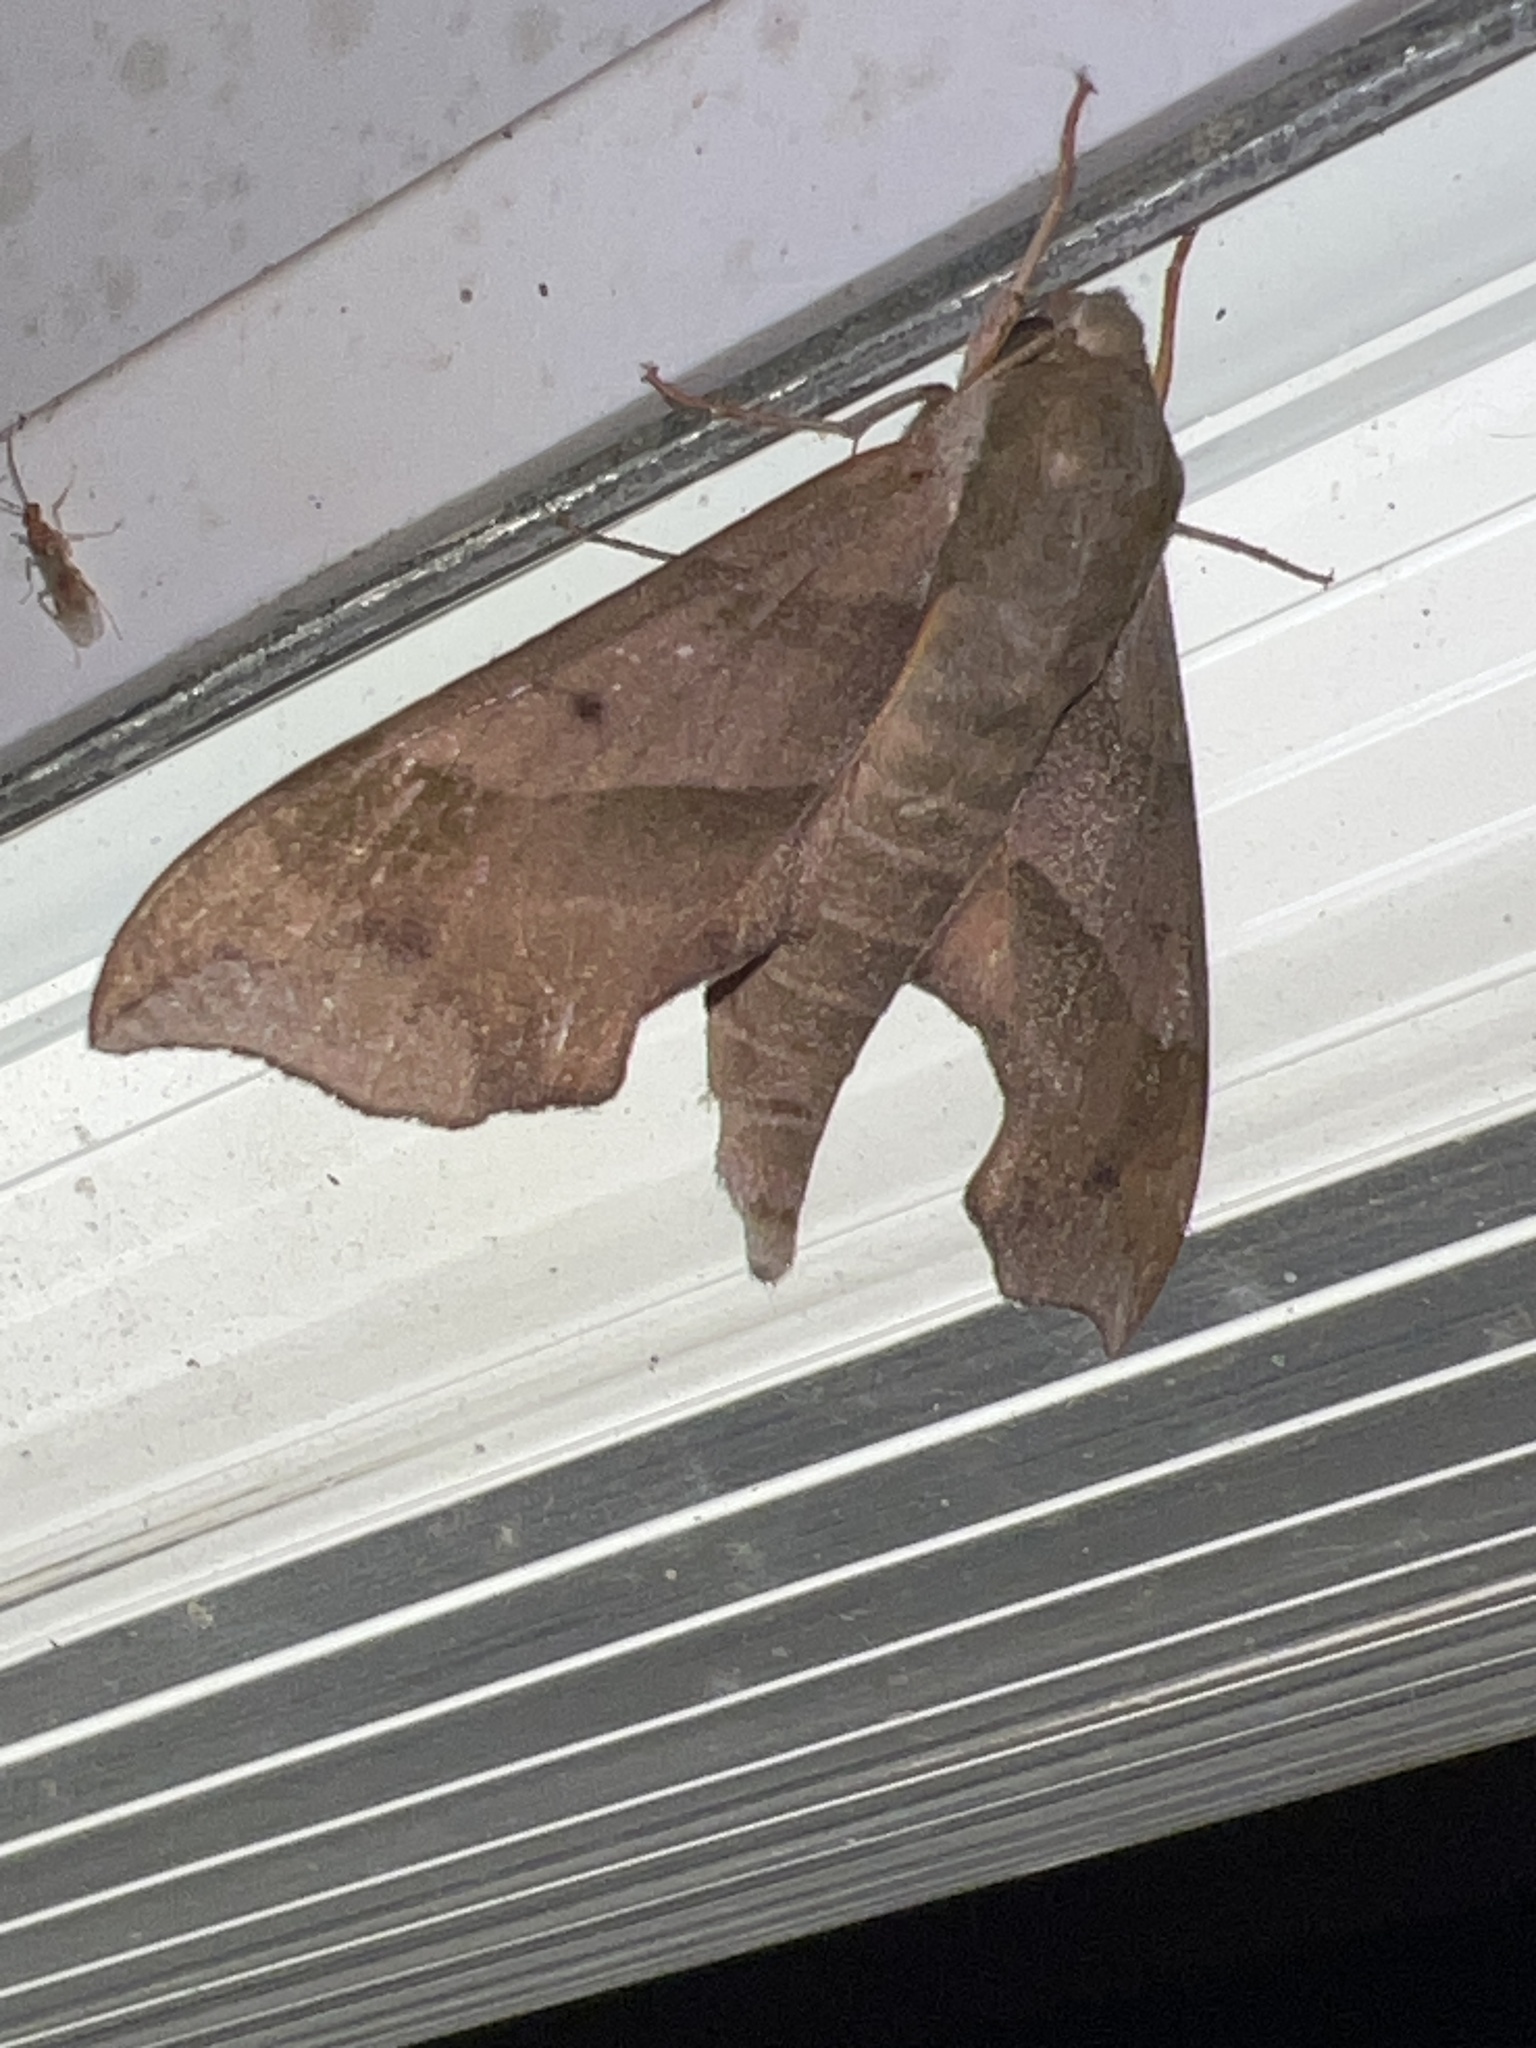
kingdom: Animalia
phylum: Arthropoda
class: Insecta
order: Lepidoptera
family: Sphingidae
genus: Darapsa
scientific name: Darapsa myron
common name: Hog sphinx
